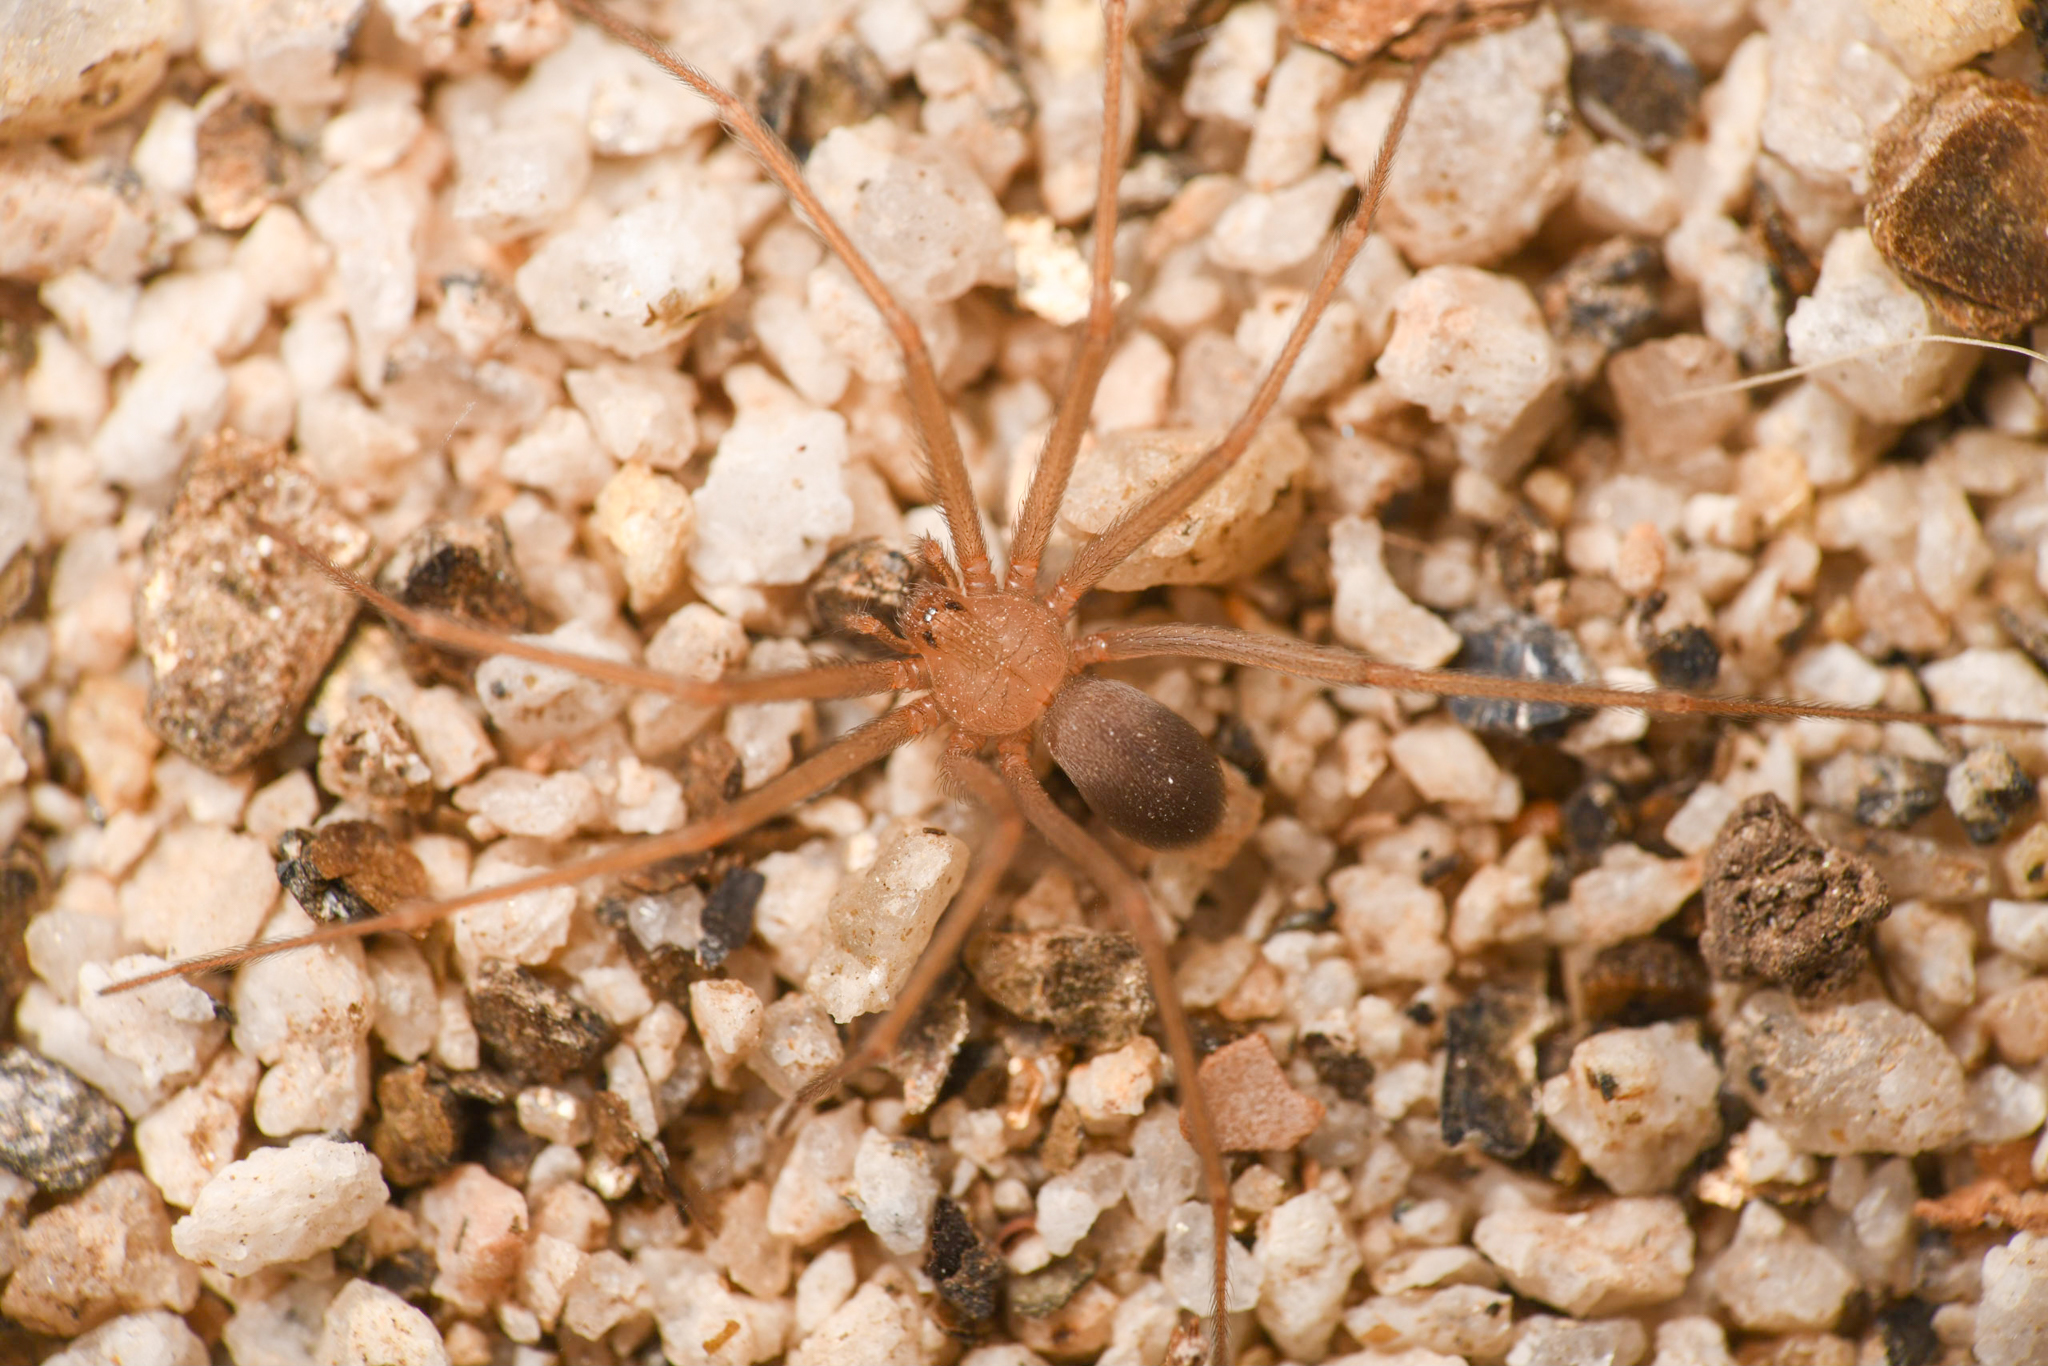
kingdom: Animalia
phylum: Arthropoda
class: Arachnida
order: Araneae
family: Sicariidae
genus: Loxosceles
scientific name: Loxosceles deserta
